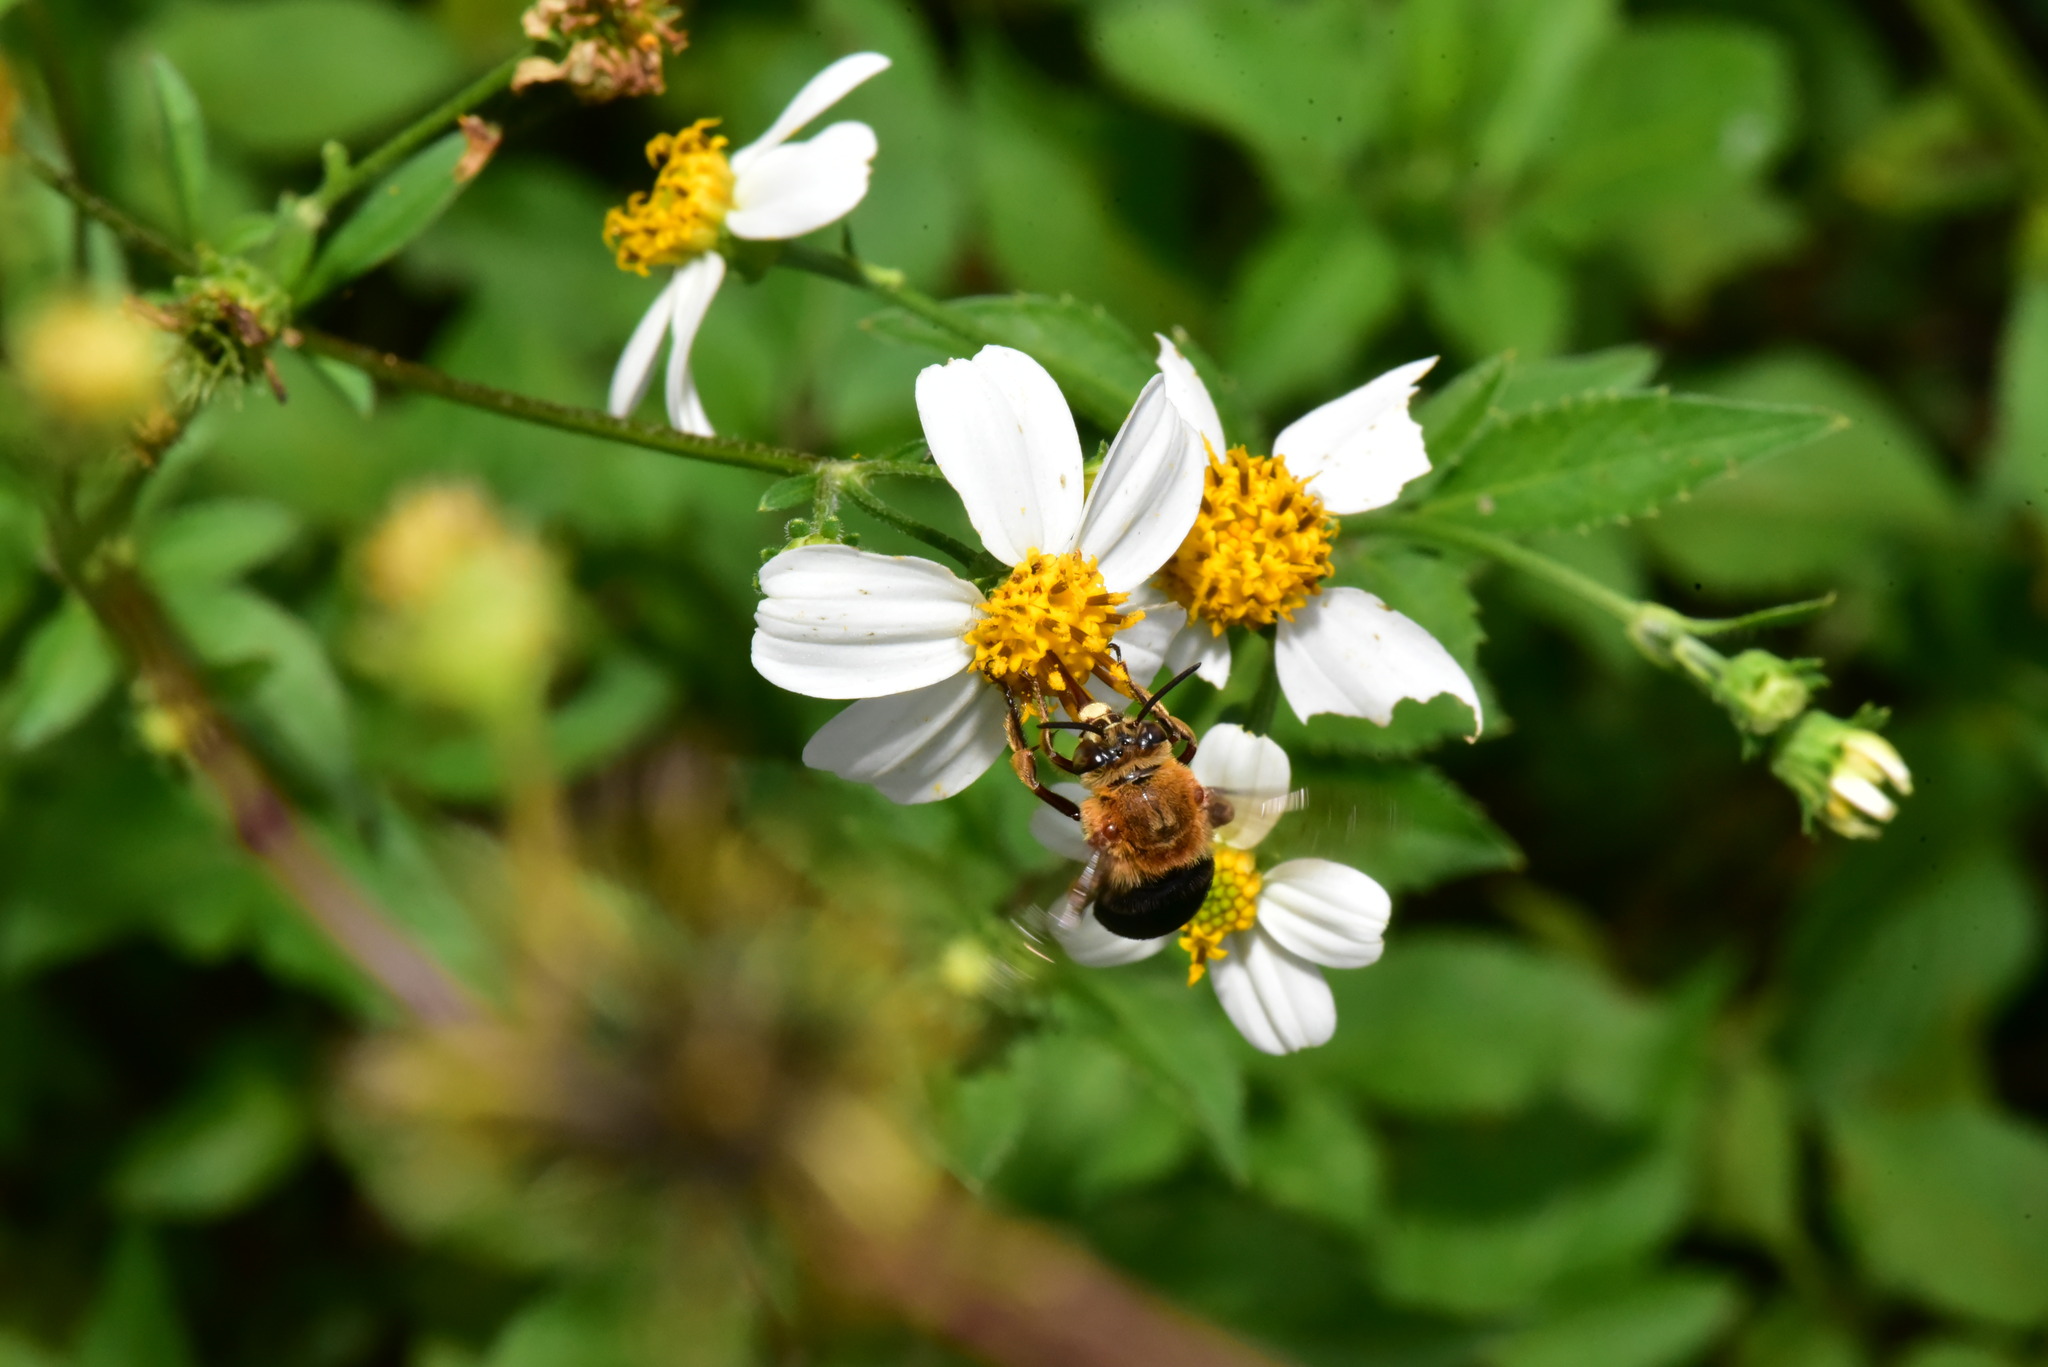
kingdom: Animalia
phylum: Arthropoda
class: Insecta
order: Hymenoptera
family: Apidae
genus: Amegilla
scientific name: Amegilla urens
